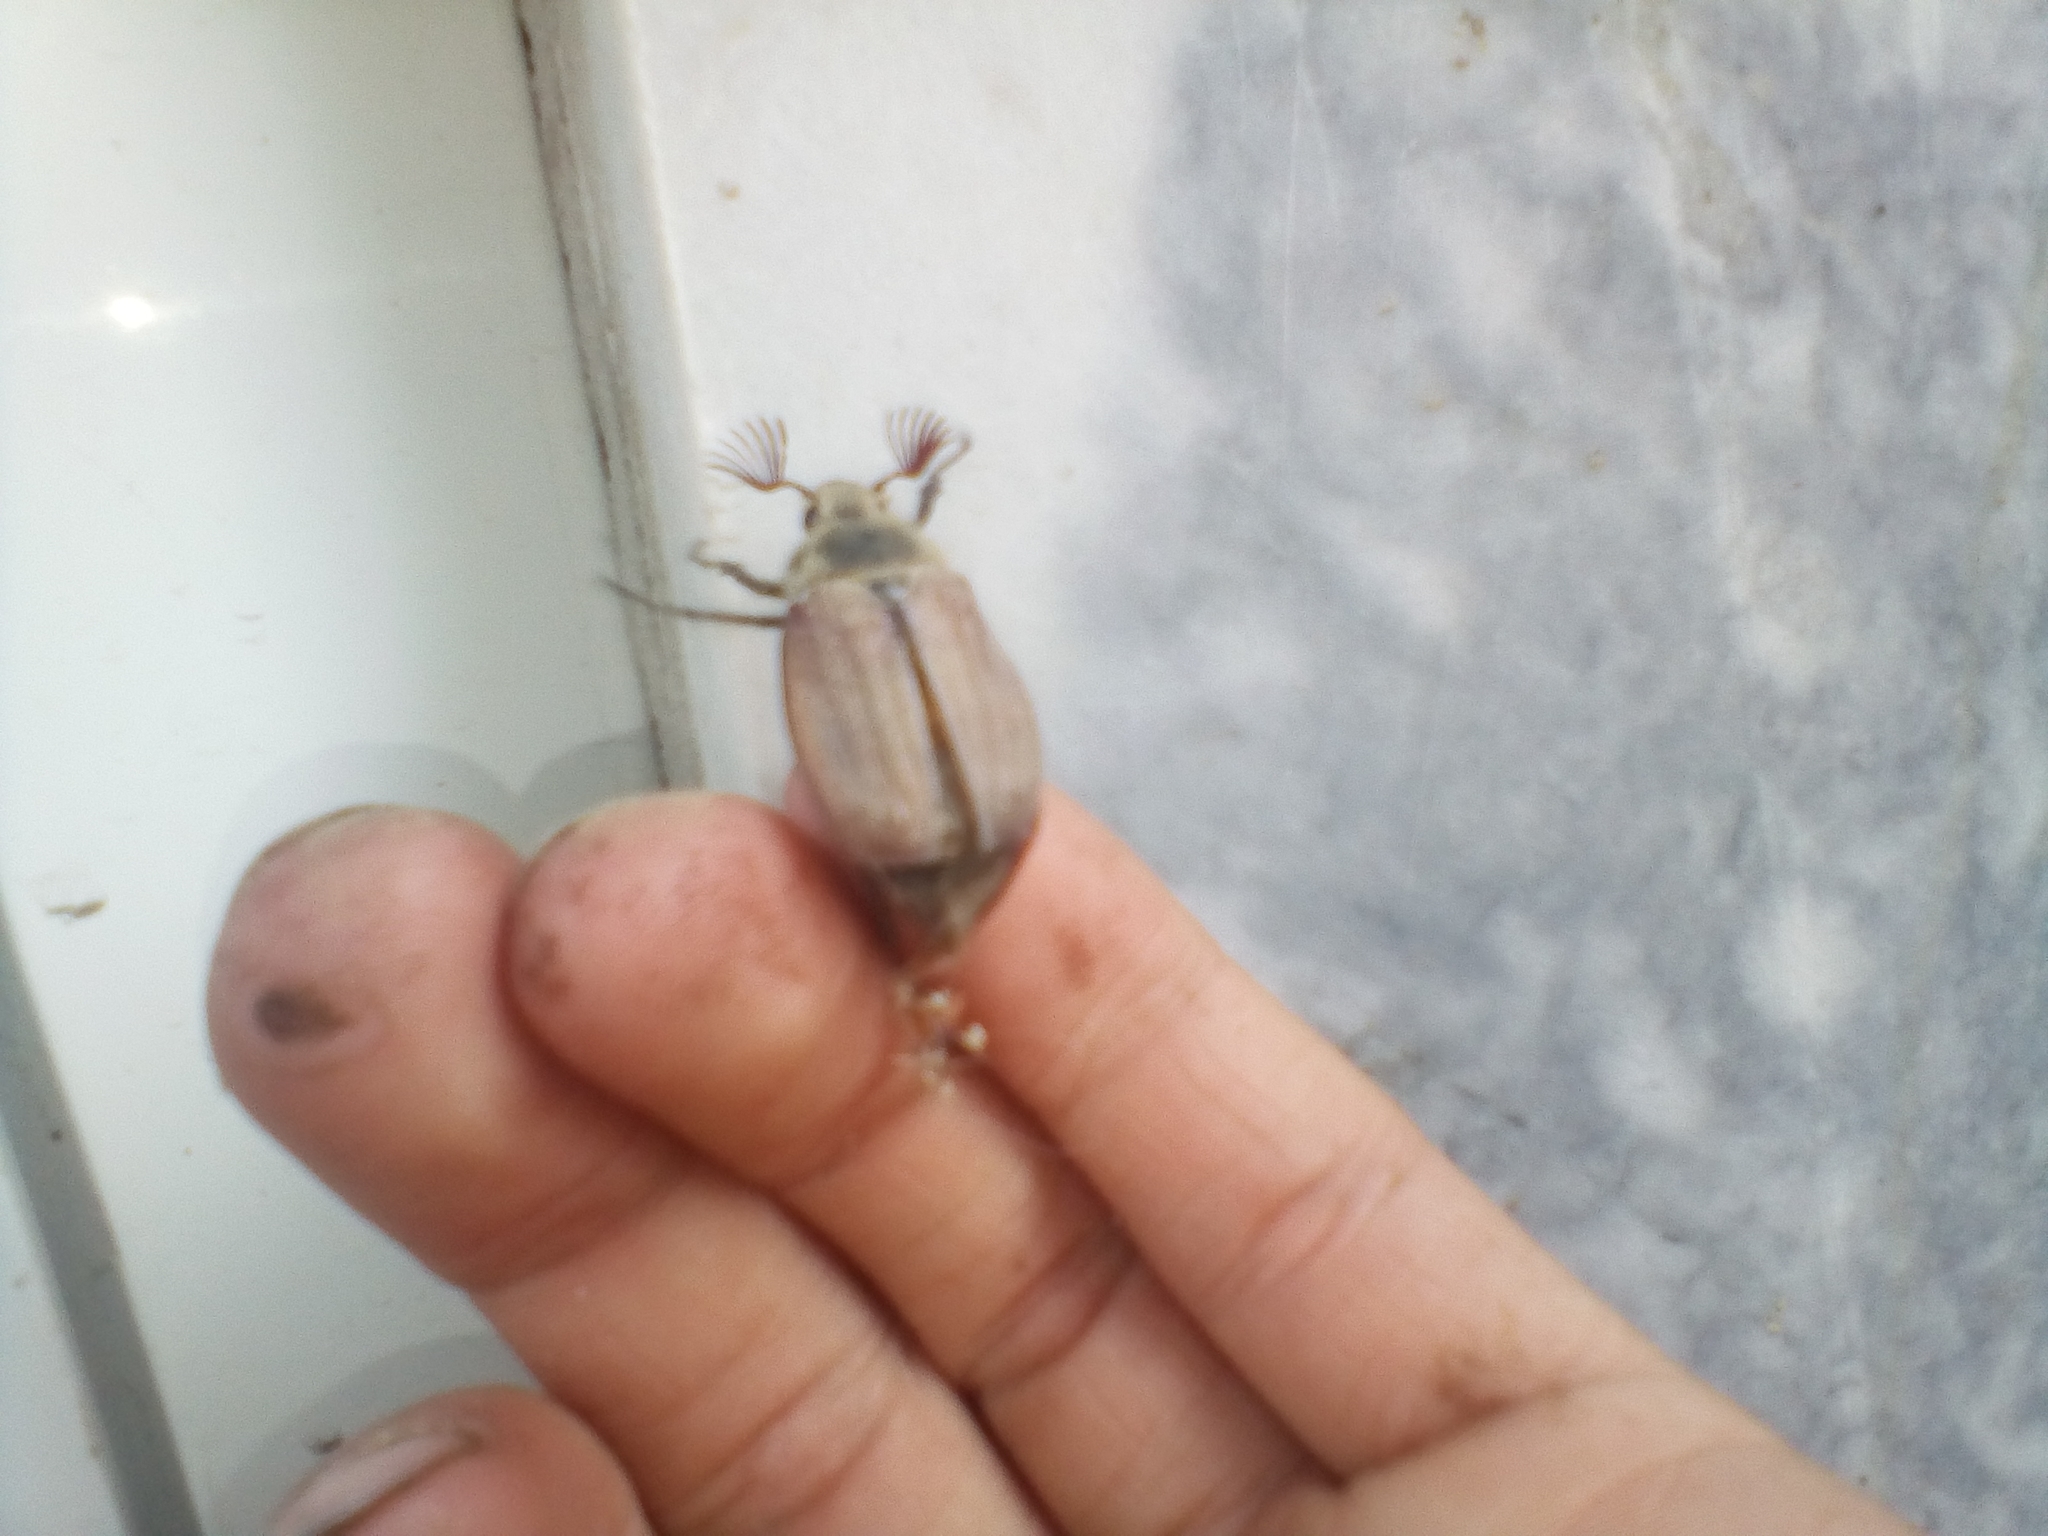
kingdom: Animalia
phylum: Arthropoda
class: Insecta
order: Coleoptera
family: Scarabaeidae
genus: Melolontha
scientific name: Melolontha hippocastani
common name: Chestnut cockchafer
